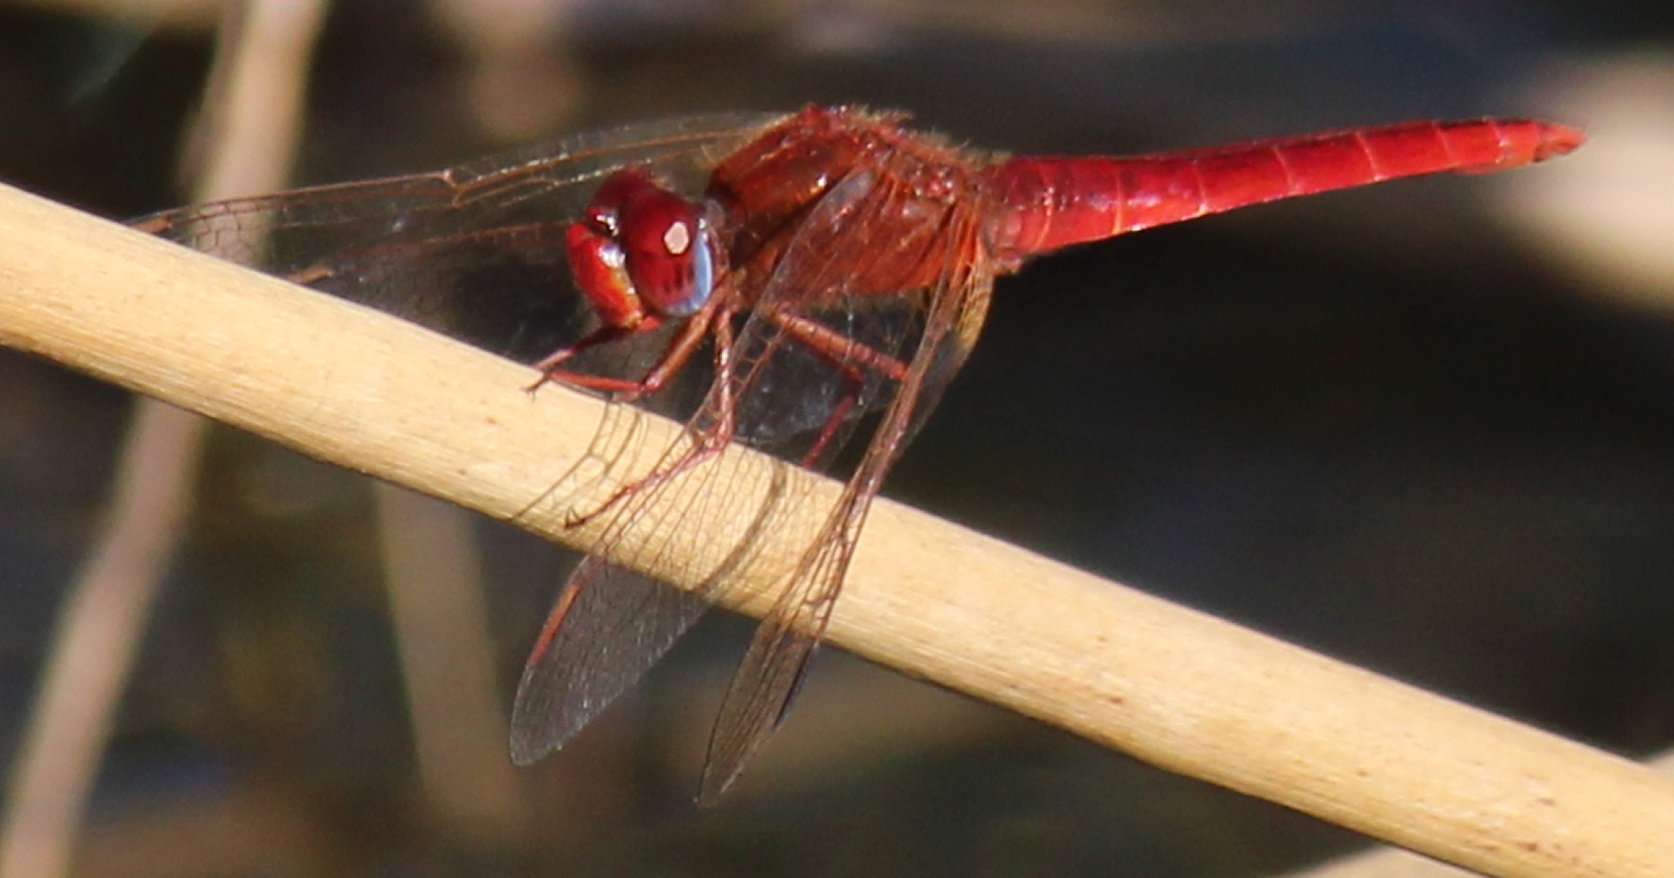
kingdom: Animalia
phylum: Arthropoda
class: Insecta
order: Odonata
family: Libellulidae
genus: Crocothemis
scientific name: Crocothemis erythraea
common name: Scarlet dragonfly
